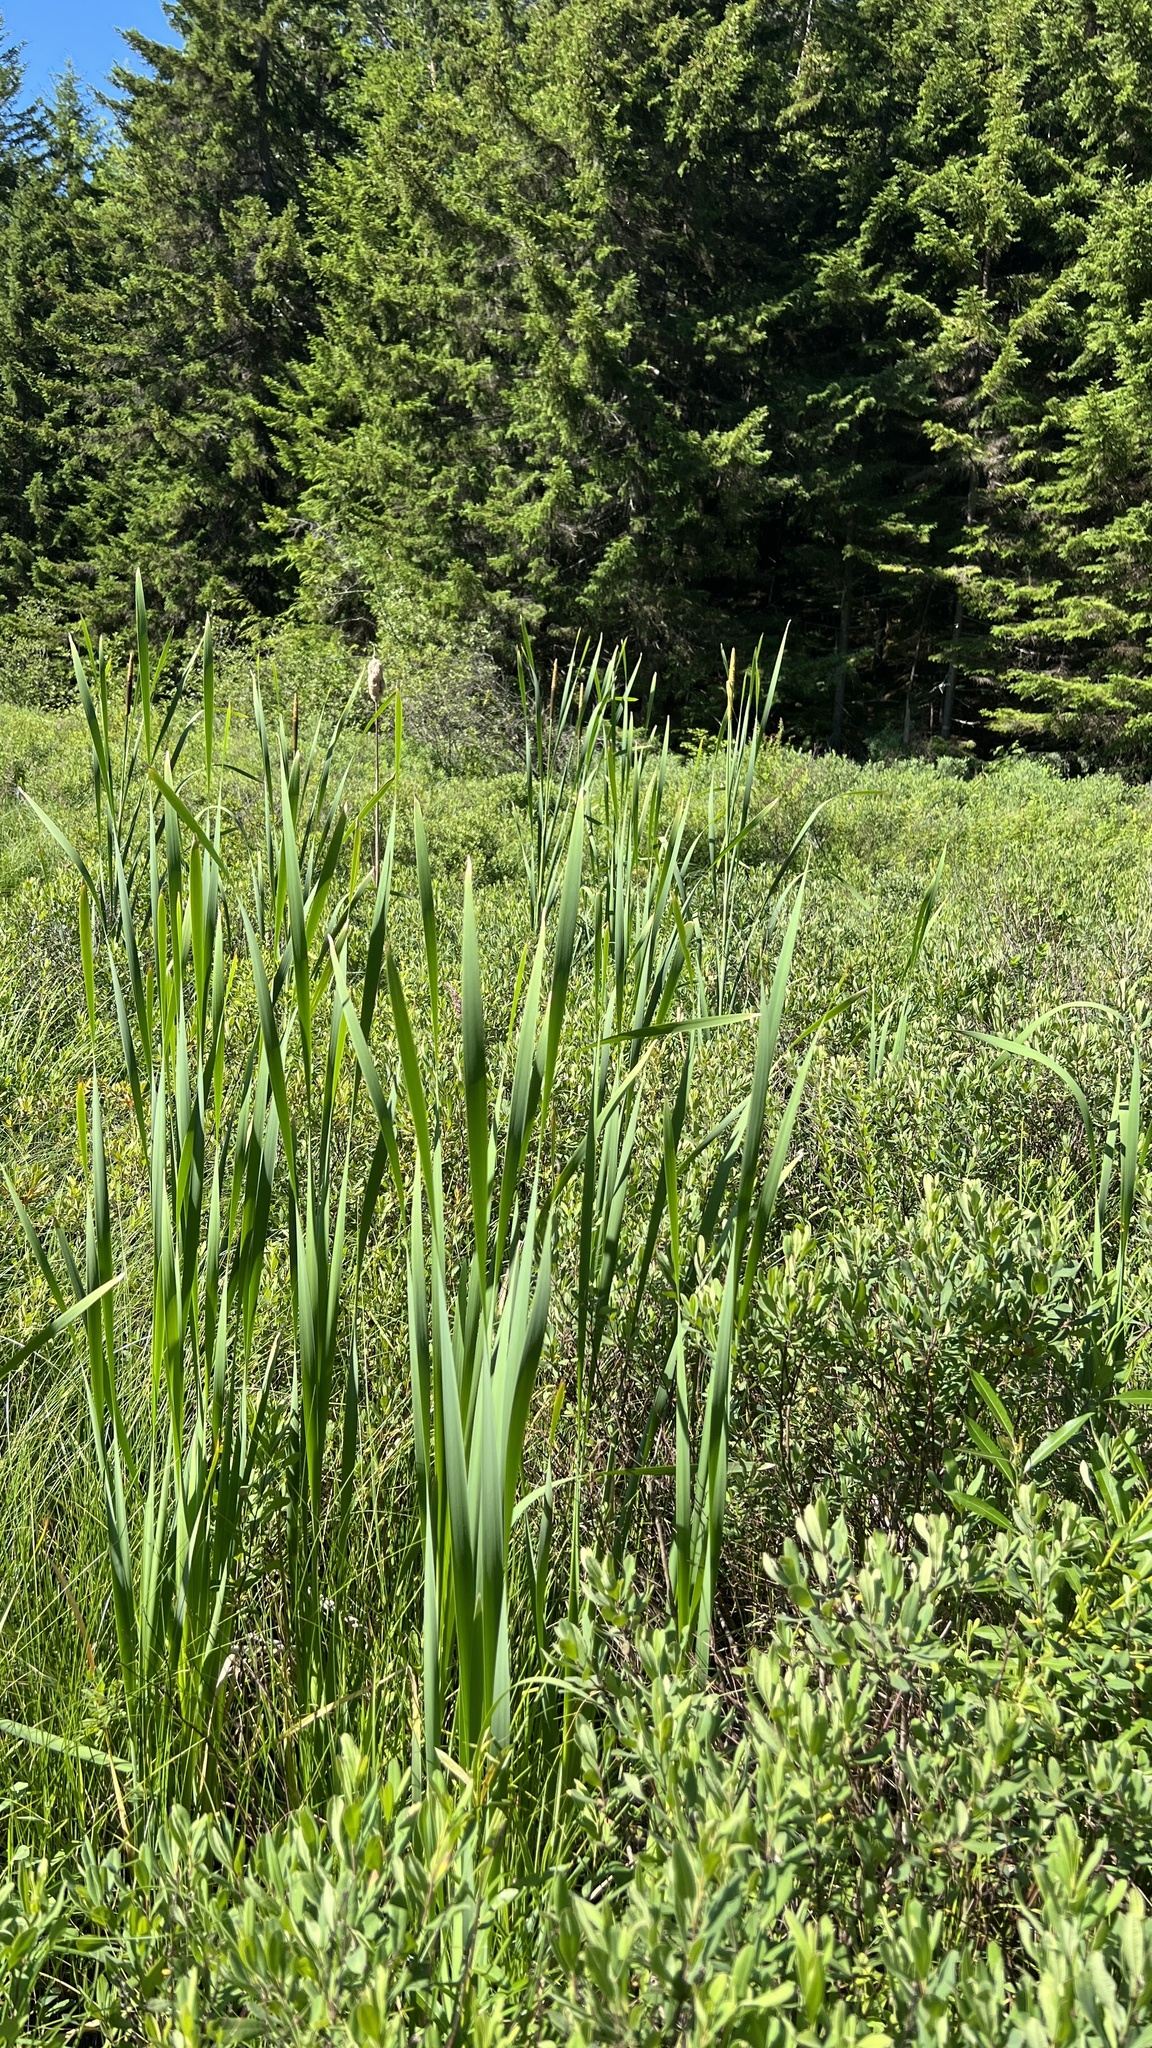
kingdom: Plantae
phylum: Tracheophyta
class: Liliopsida
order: Poales
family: Typhaceae
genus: Typha
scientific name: Typha latifolia
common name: Broadleaf cattail
